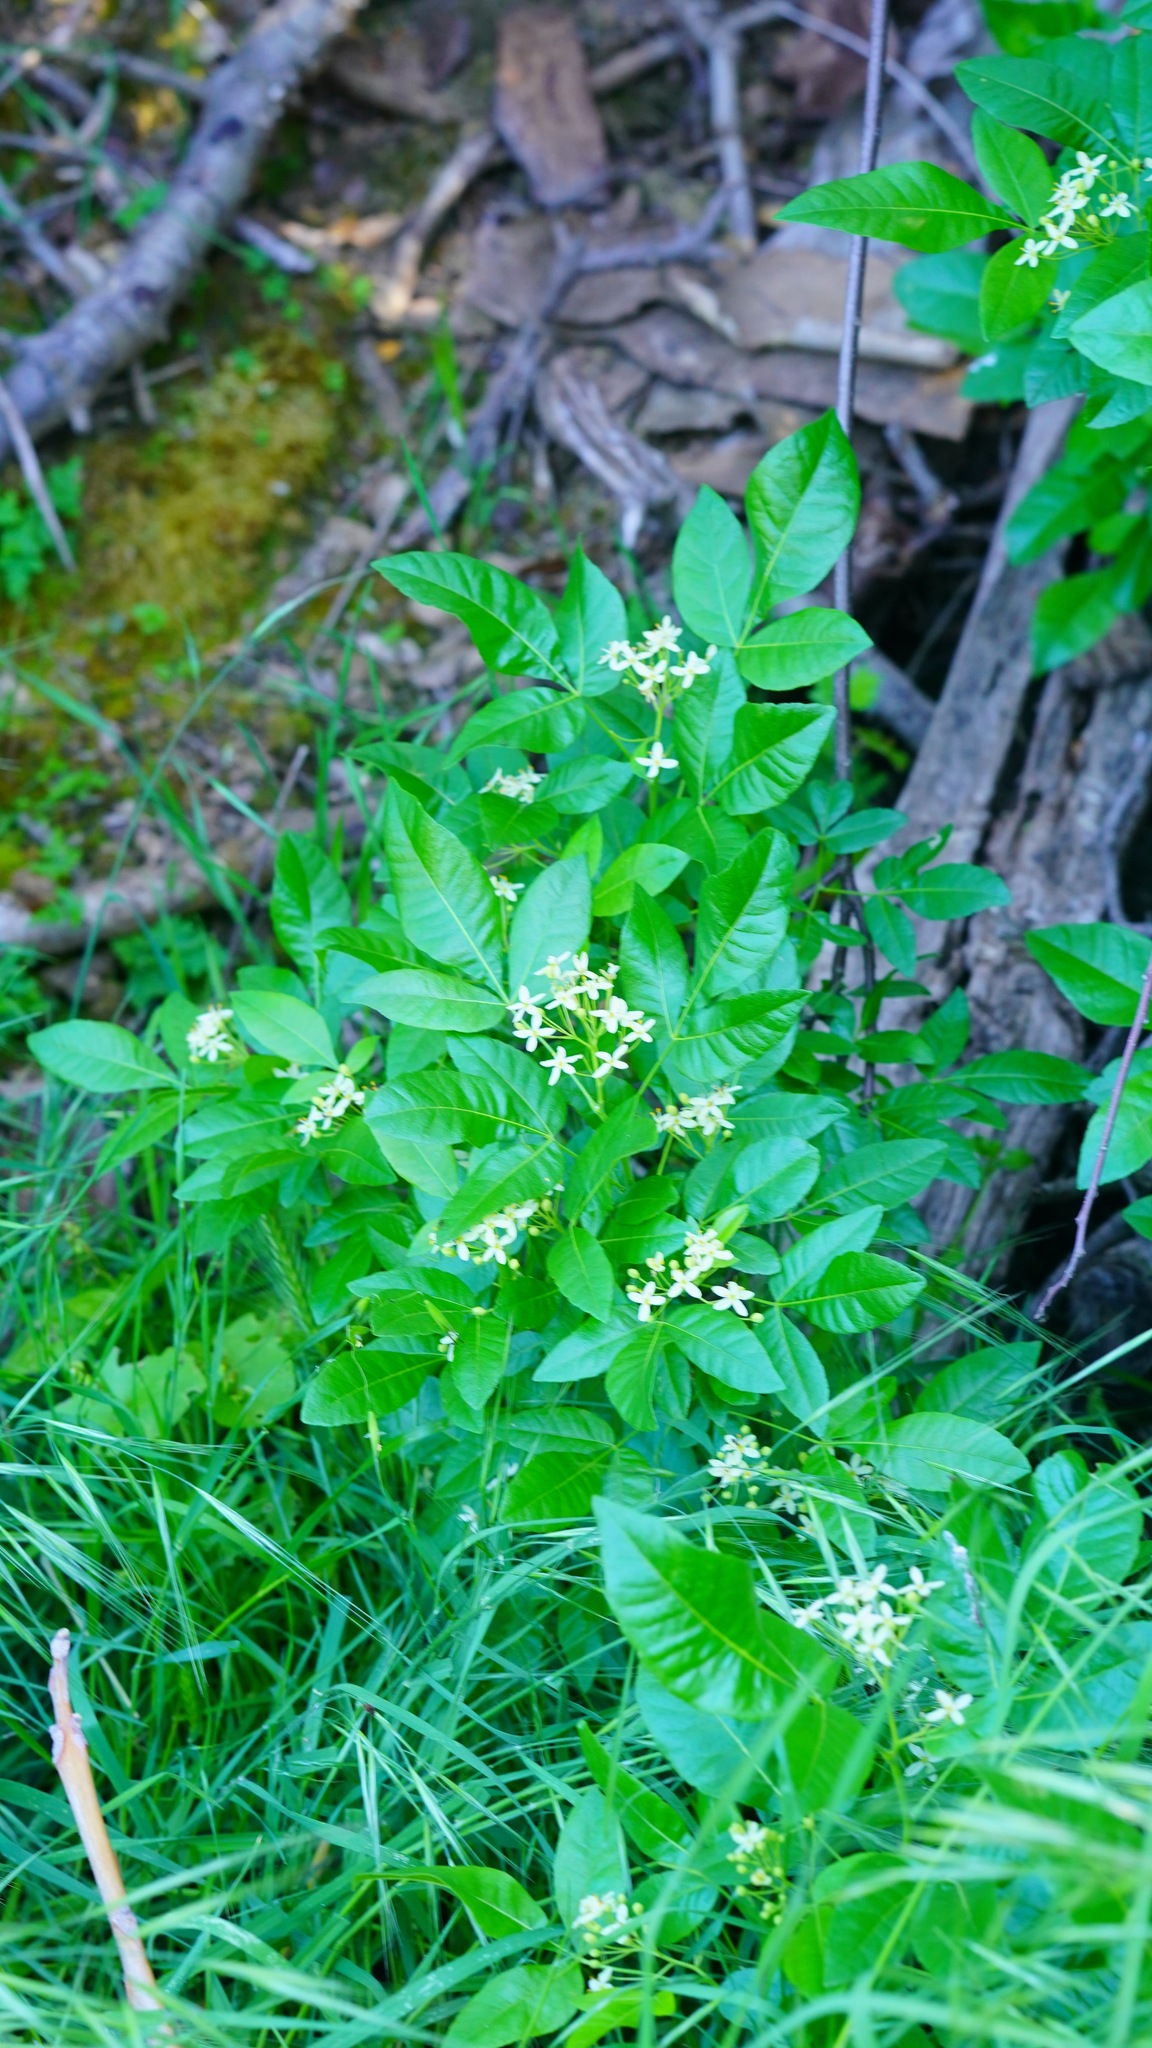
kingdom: Plantae
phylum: Tracheophyta
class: Magnoliopsida
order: Sapindales
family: Rutaceae
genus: Ptelea
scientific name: Ptelea crenulata
